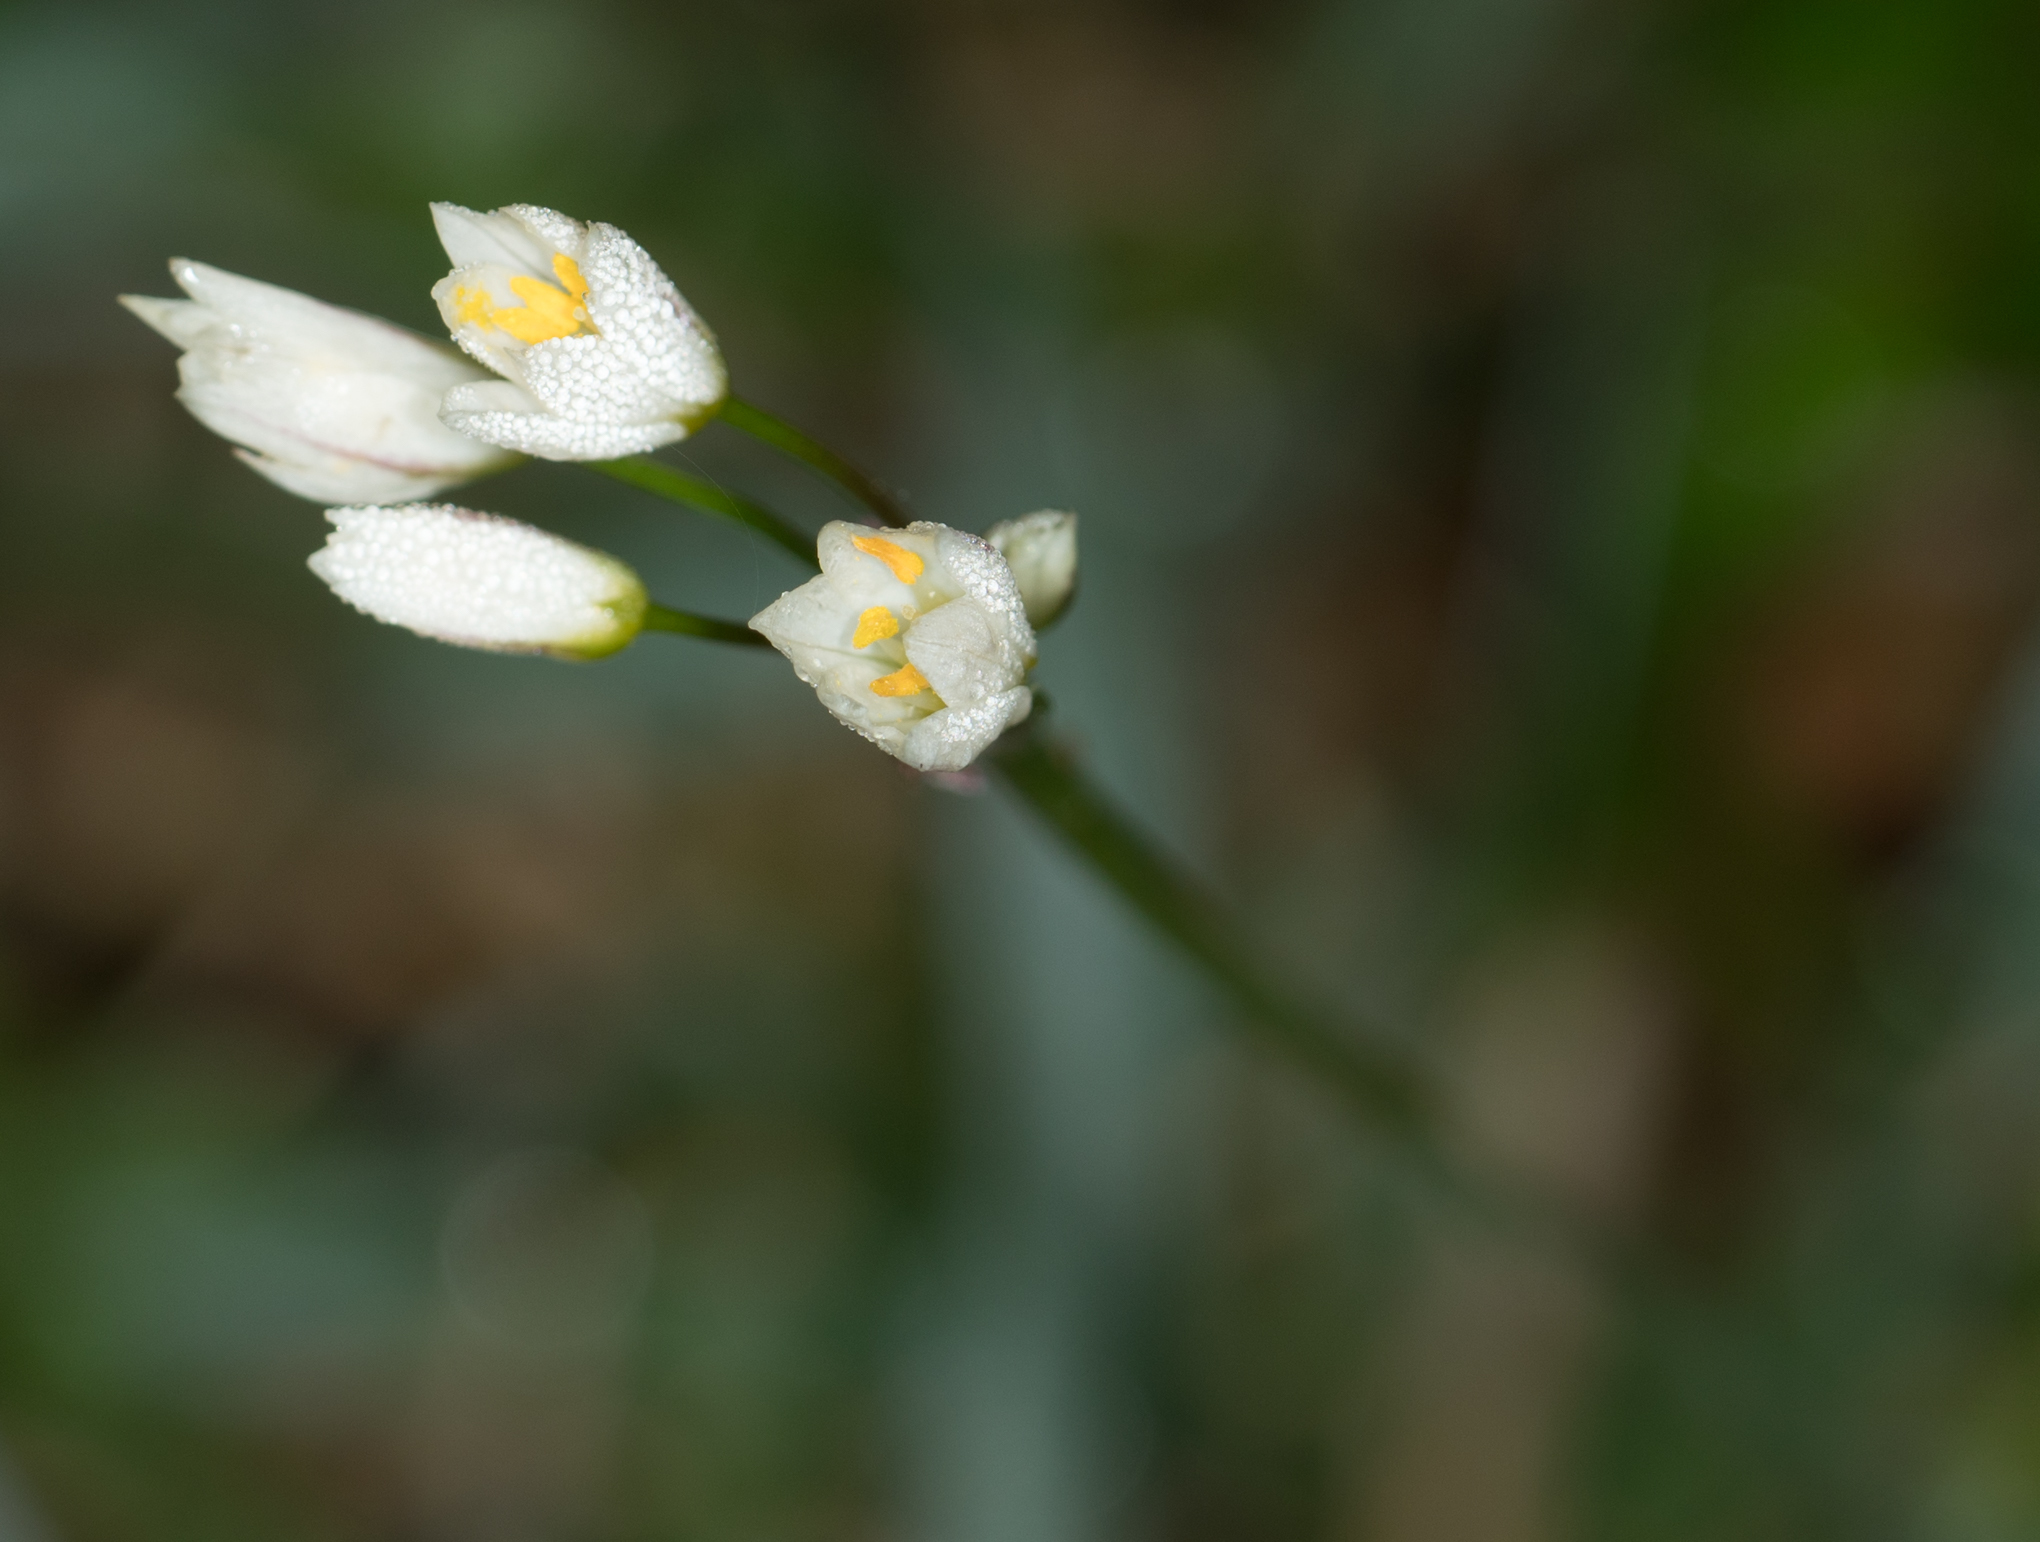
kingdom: Plantae
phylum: Tracheophyta
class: Liliopsida
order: Asparagales
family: Amaryllidaceae
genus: Nothoscordum
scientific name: Nothoscordum bivalve
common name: Crow-poison
